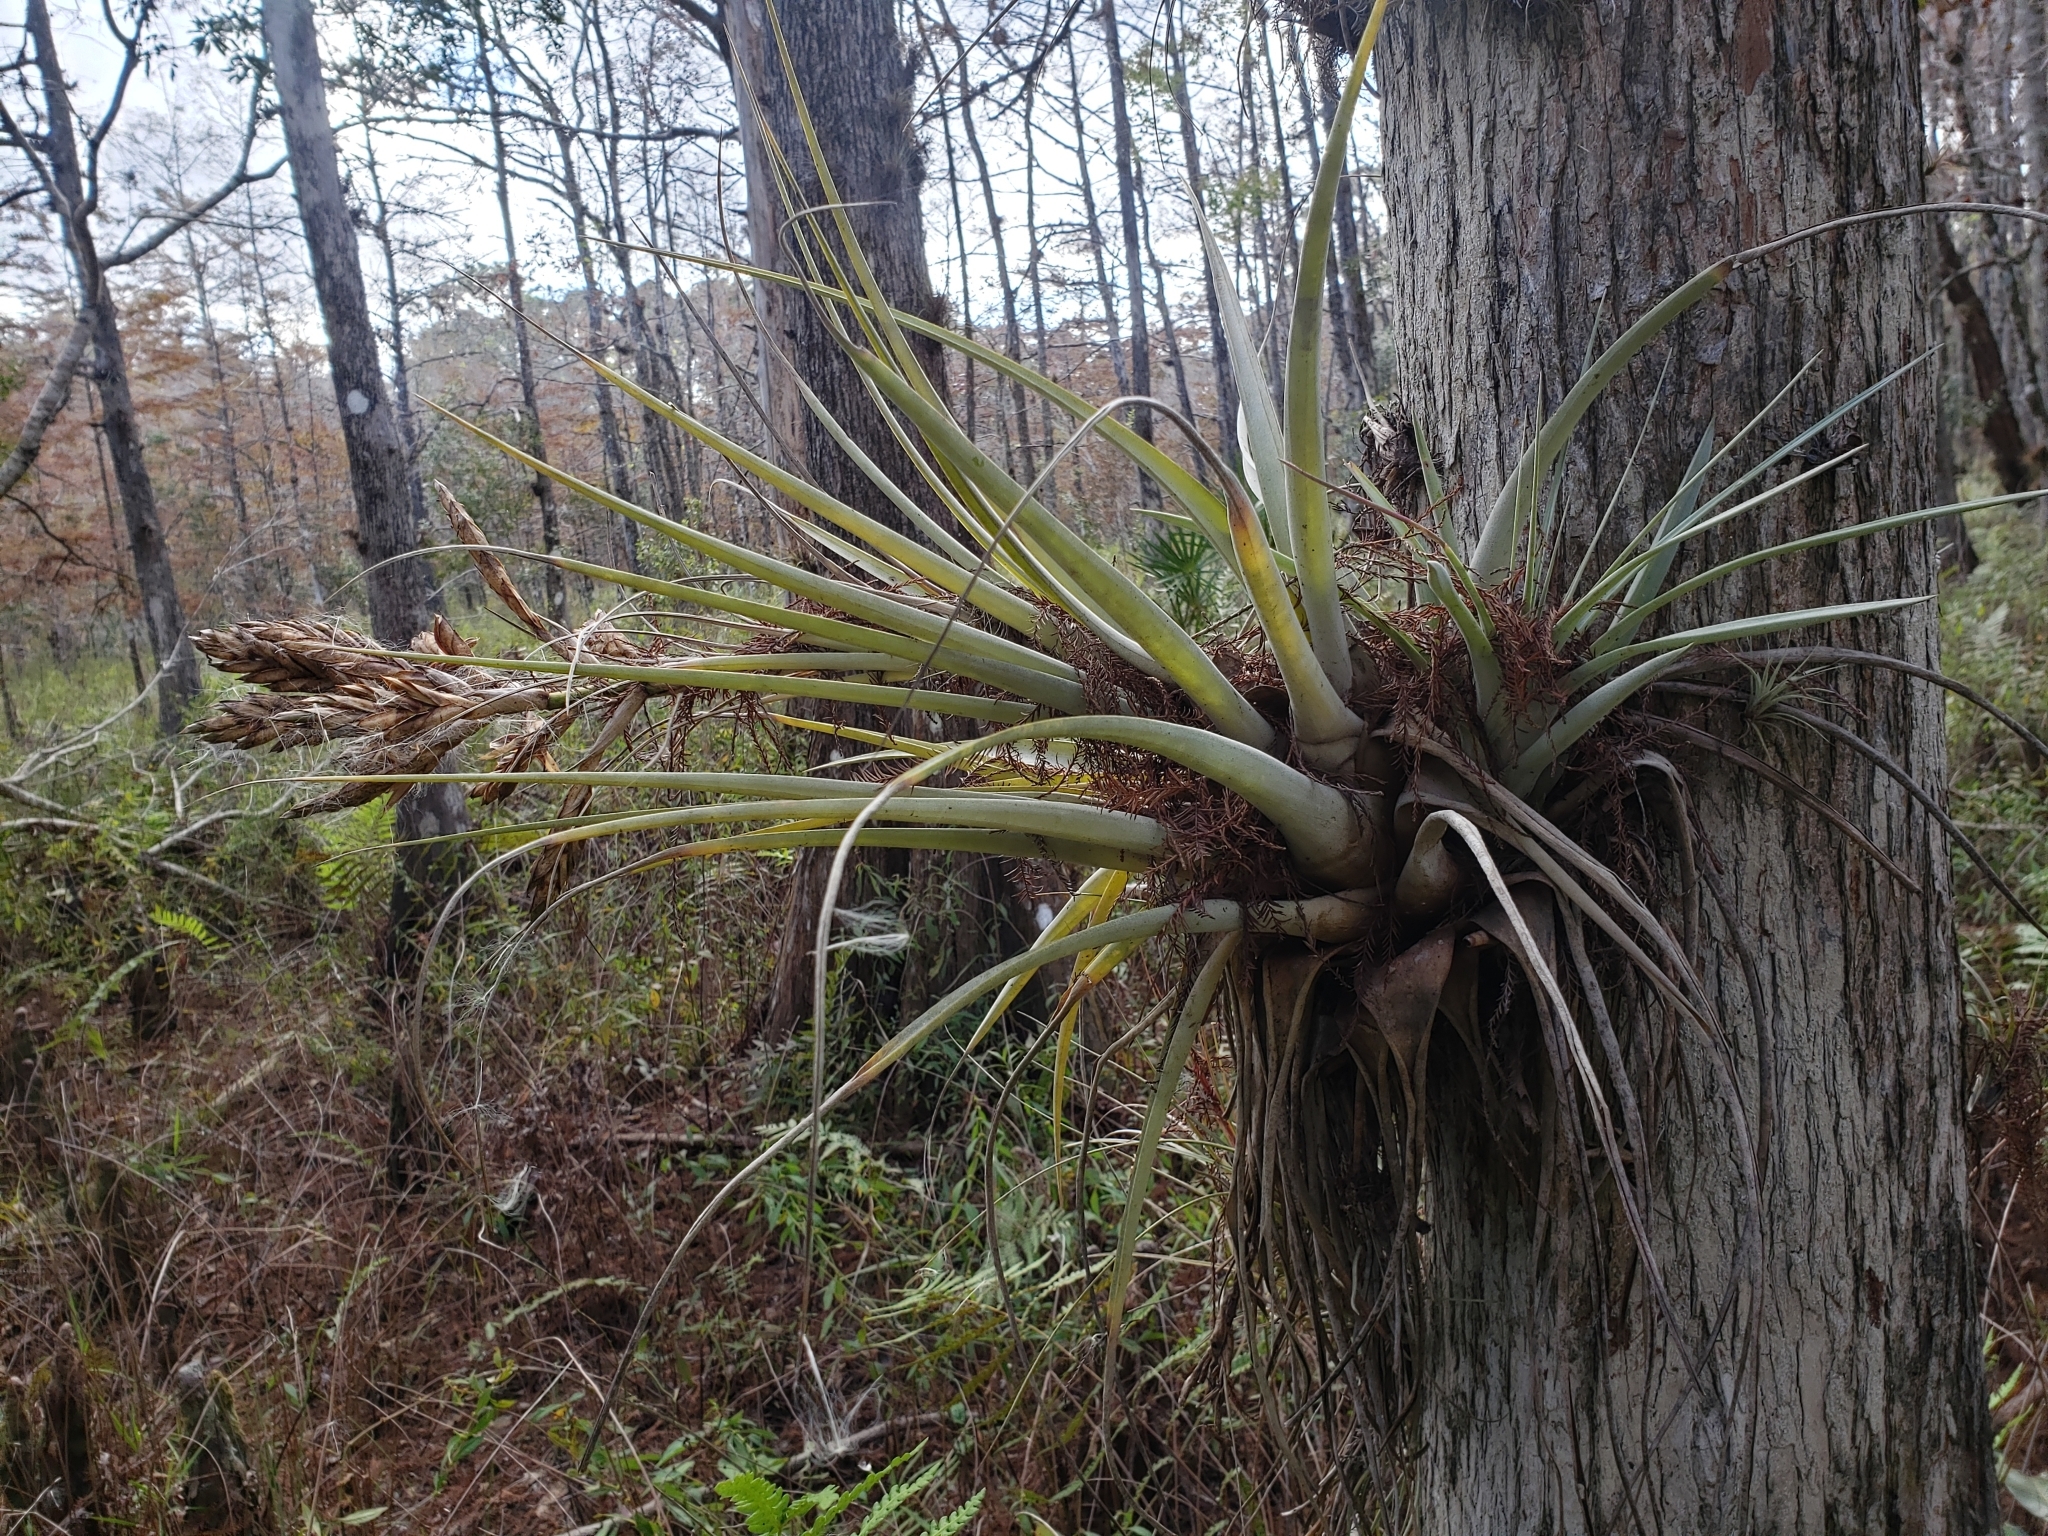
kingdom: Plantae
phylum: Tracheophyta
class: Liliopsida
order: Poales
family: Bromeliaceae
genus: Tillandsia
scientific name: Tillandsia fasciculata
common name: Giant airplant
